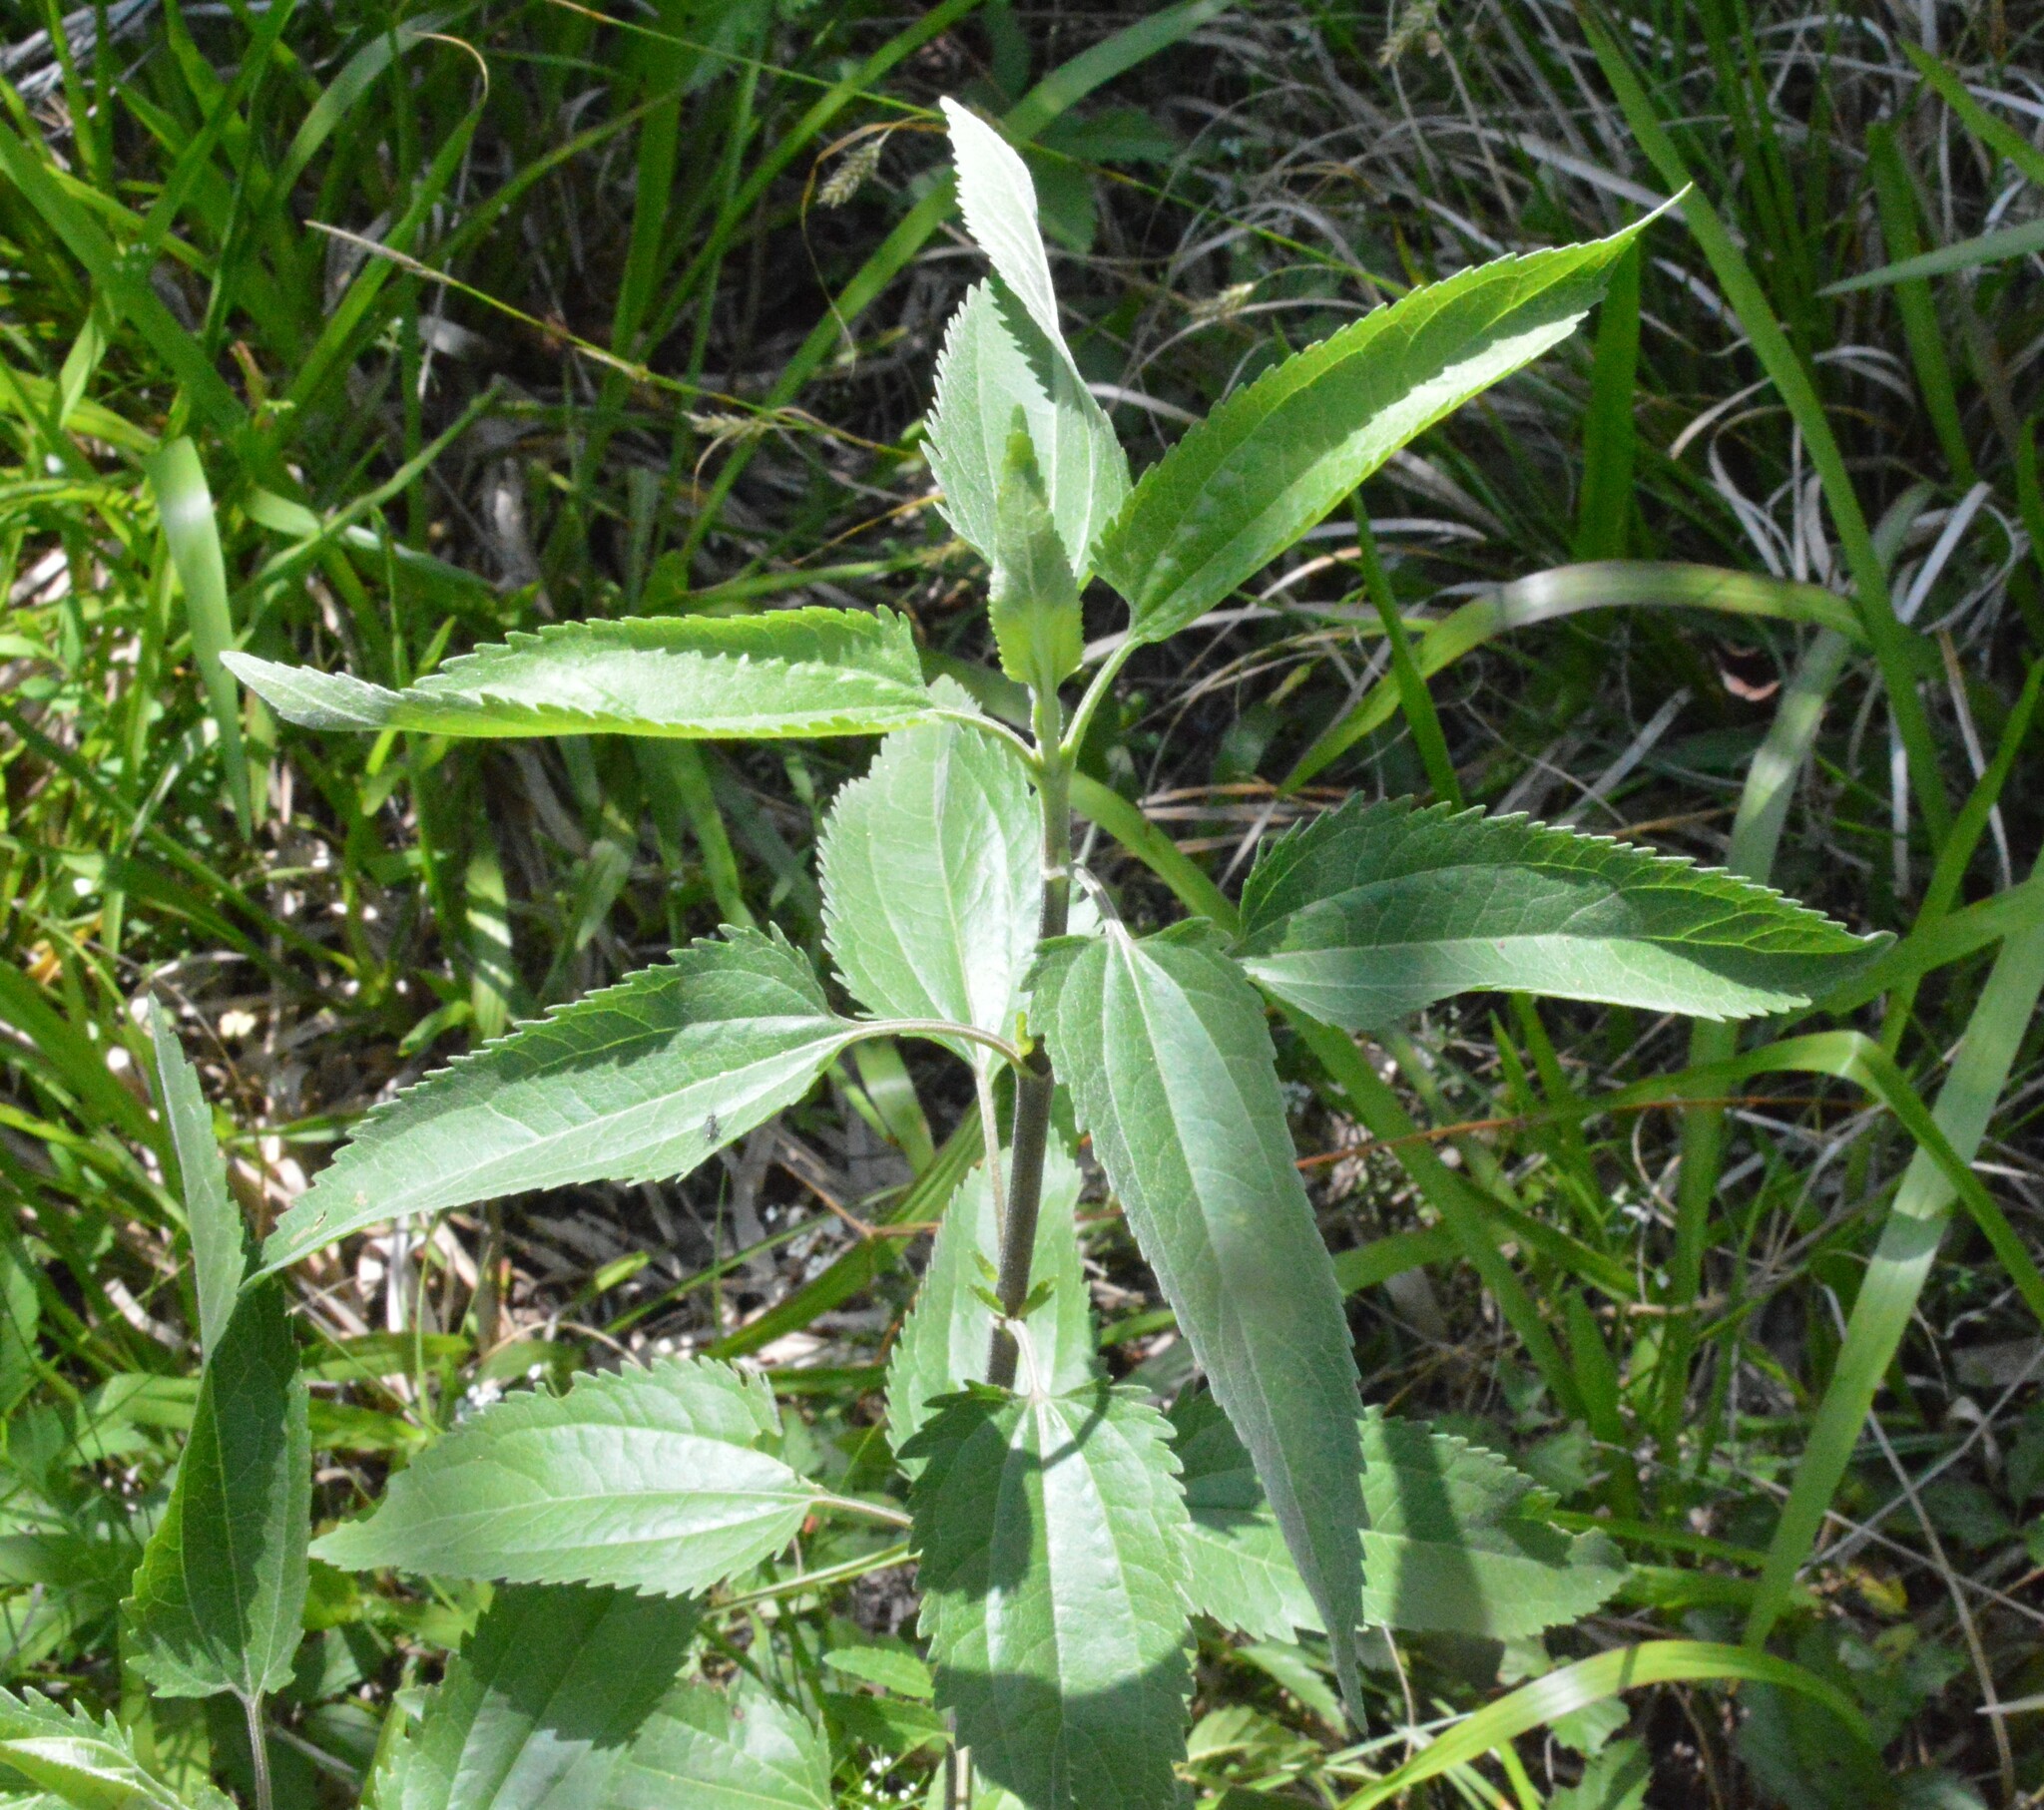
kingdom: Plantae
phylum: Tracheophyta
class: Magnoliopsida
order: Asterales
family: Asteraceae
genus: Eupatorium
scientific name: Eupatorium serotinum
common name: Late boneset
